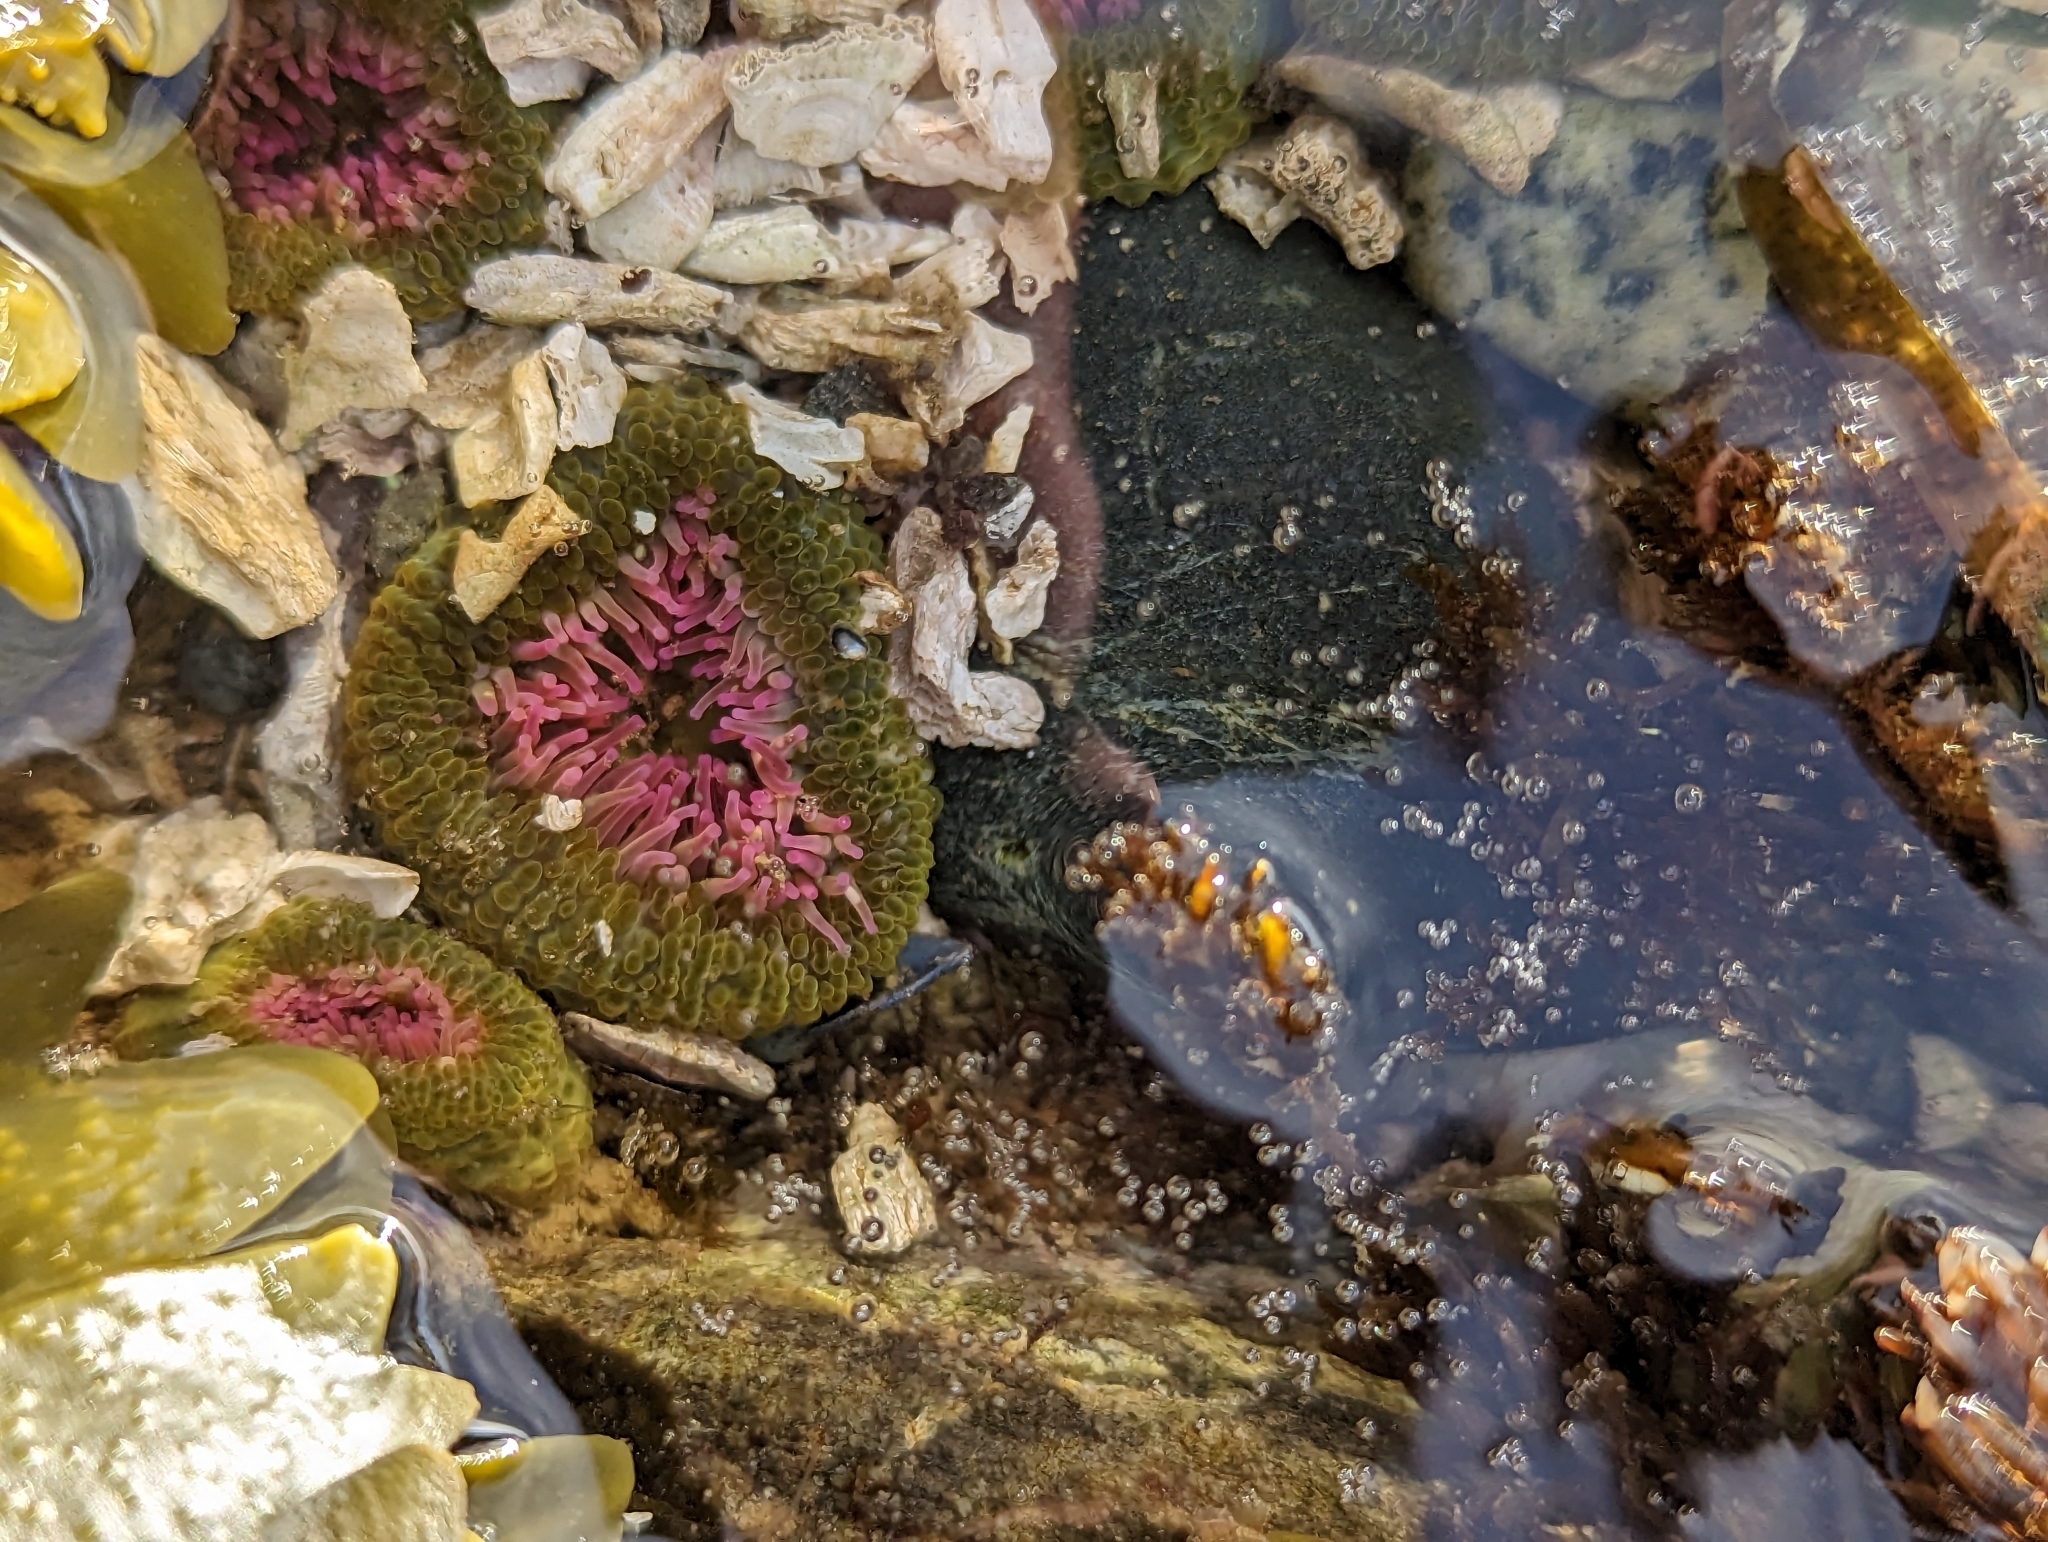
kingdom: Animalia
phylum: Cnidaria
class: Anthozoa
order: Actiniaria
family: Actiniidae
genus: Anthopleura
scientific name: Anthopleura elegantissima
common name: Clonal anemone
